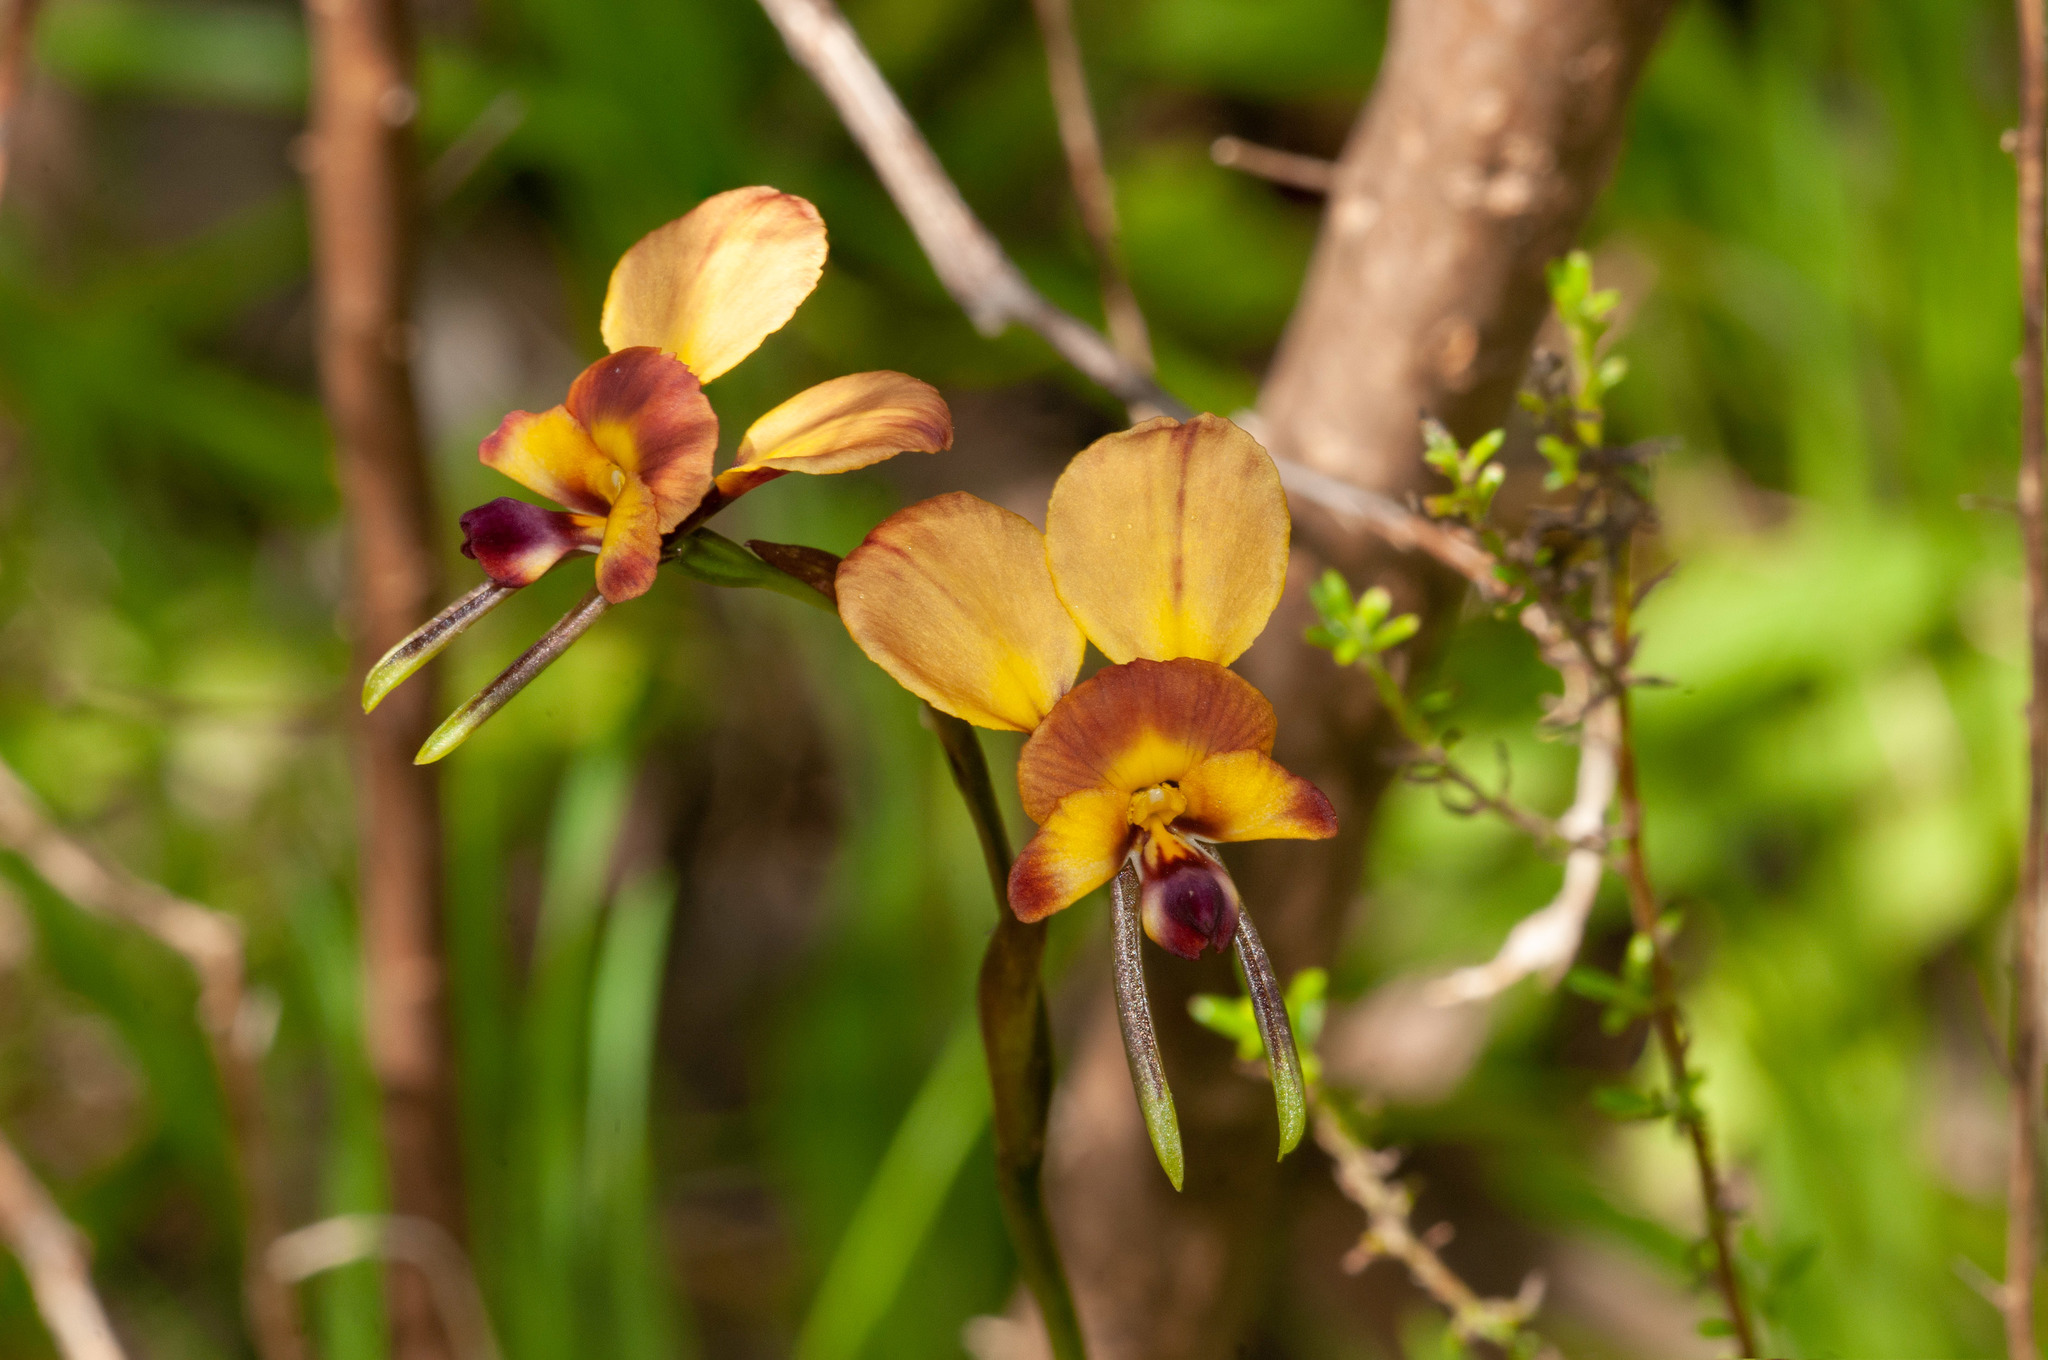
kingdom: Plantae
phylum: Tracheophyta
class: Liliopsida
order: Asparagales
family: Orchidaceae
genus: Diuris
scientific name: Diuris orientis
